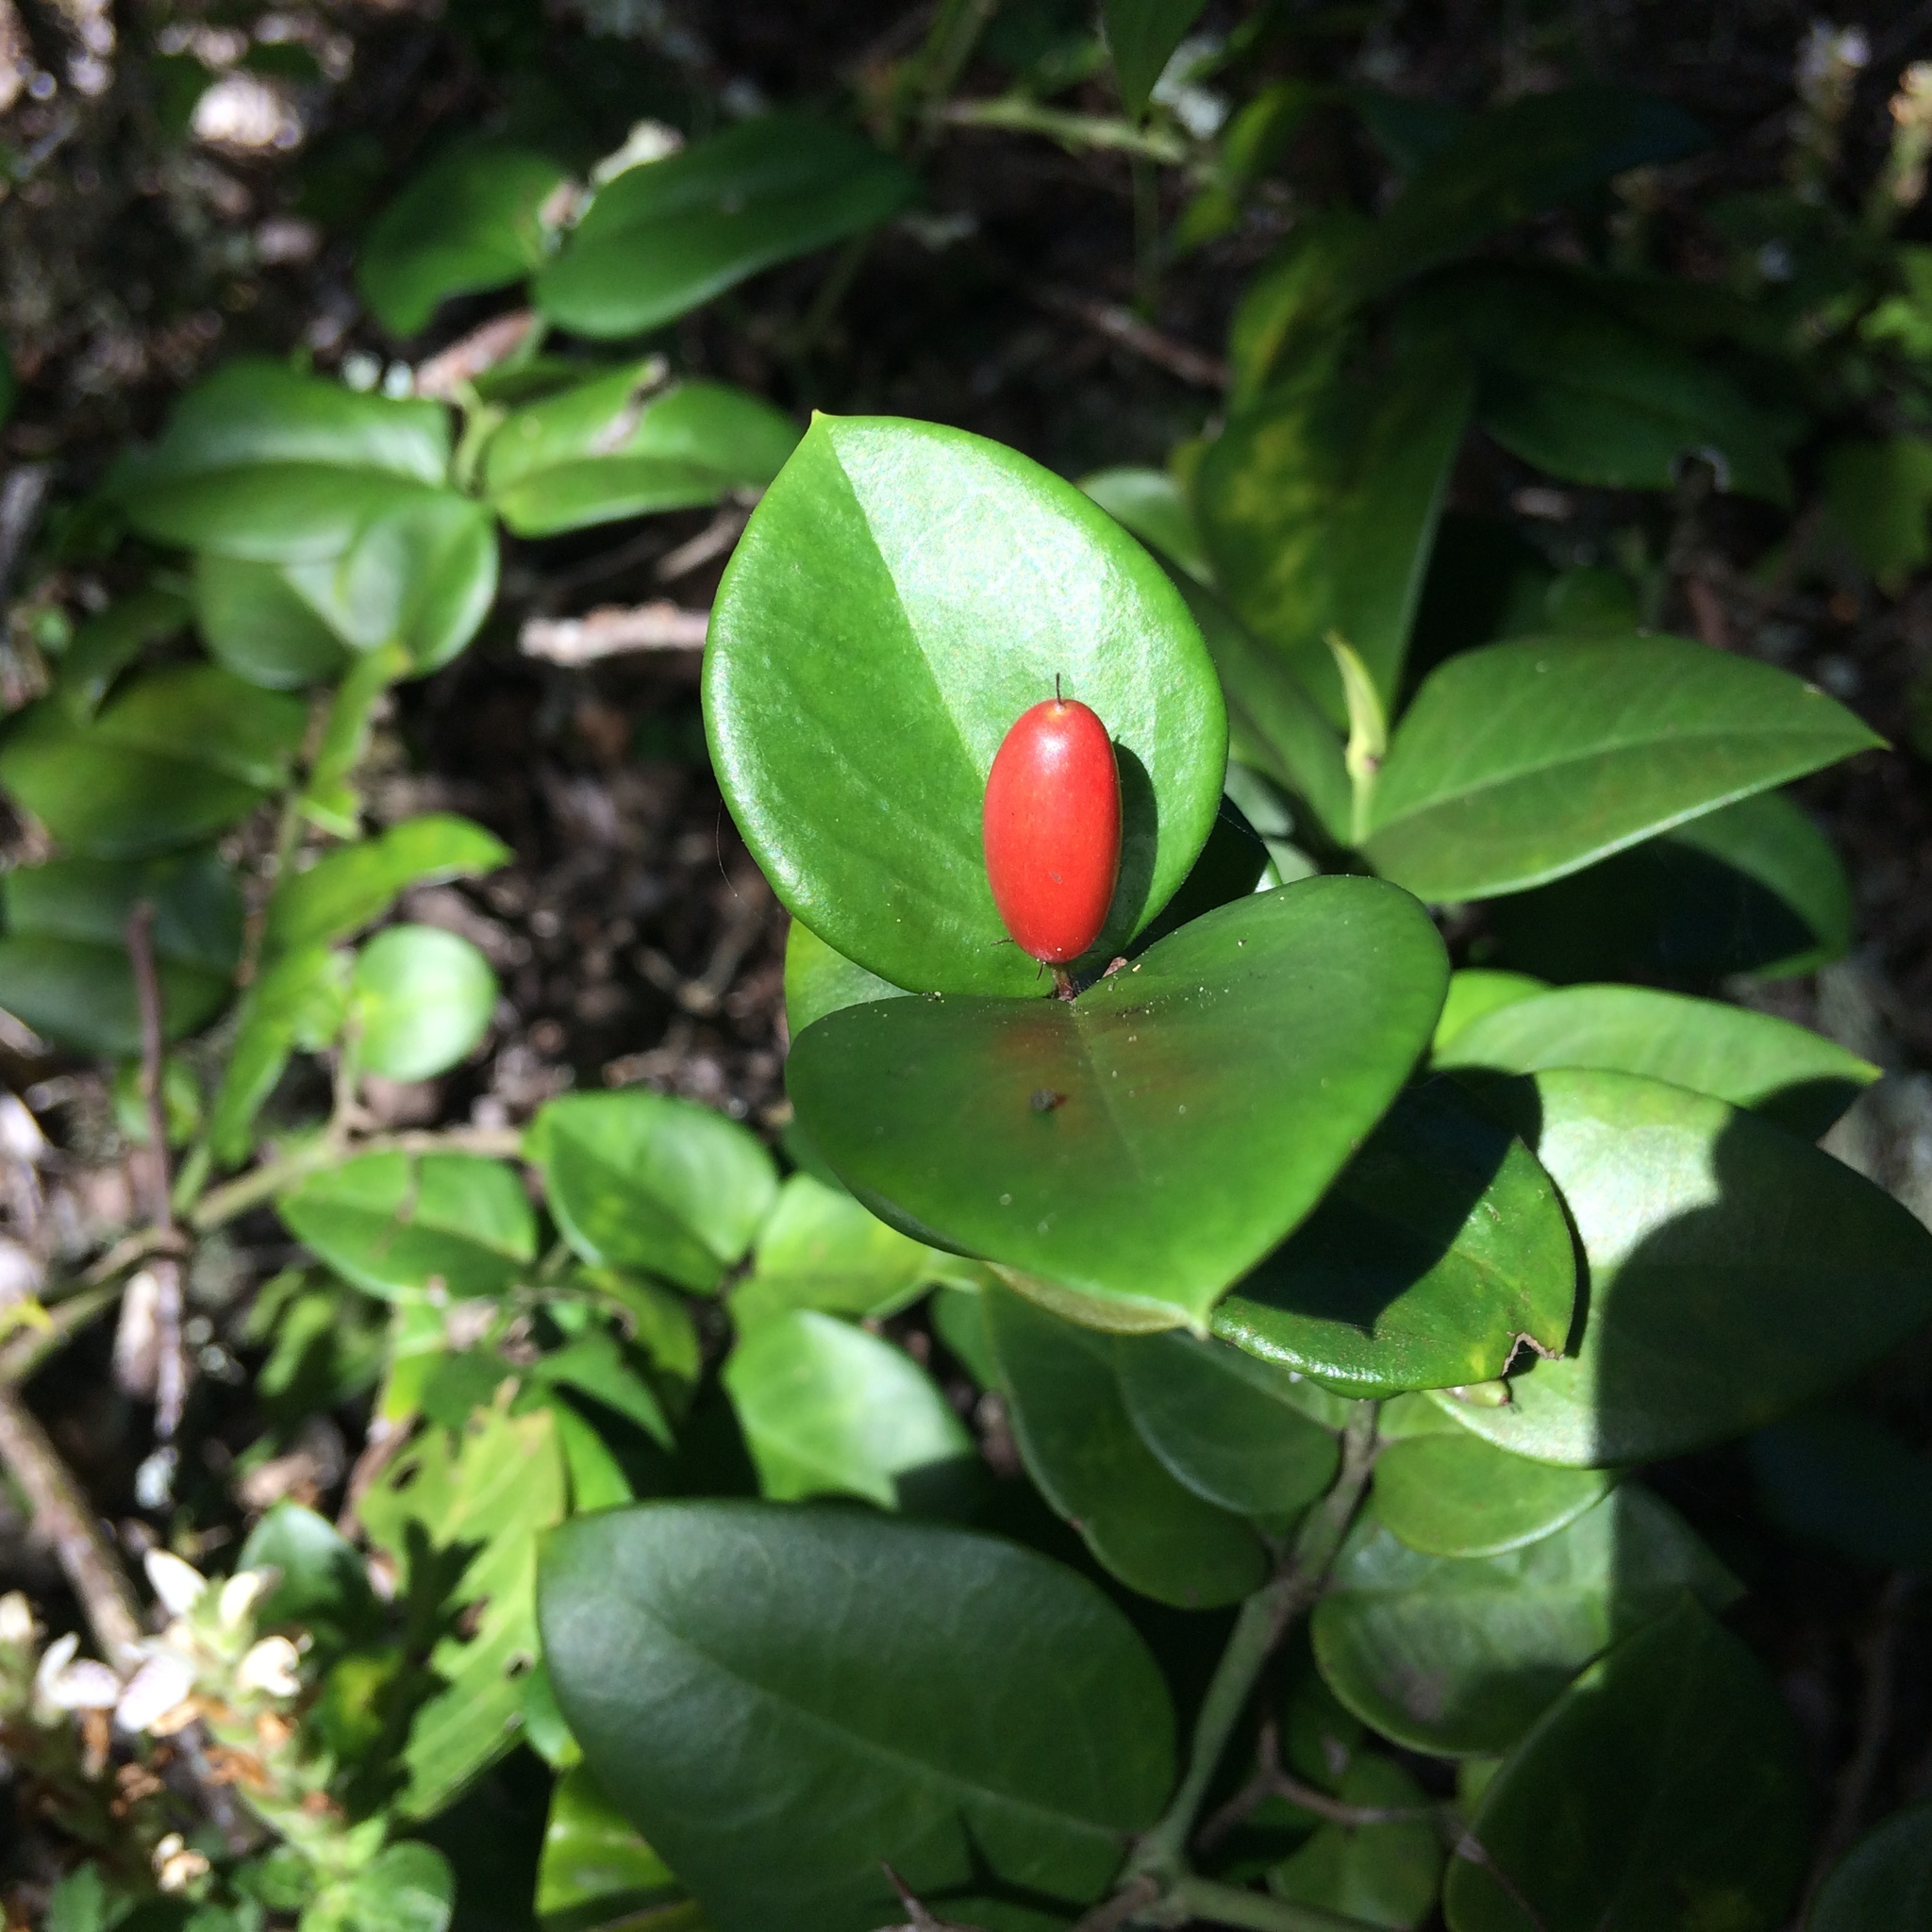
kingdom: Plantae
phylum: Tracheophyta
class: Magnoliopsida
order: Gentianales
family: Apocynaceae
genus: Carissa
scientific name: Carissa bispinosa
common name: Forest num-num
